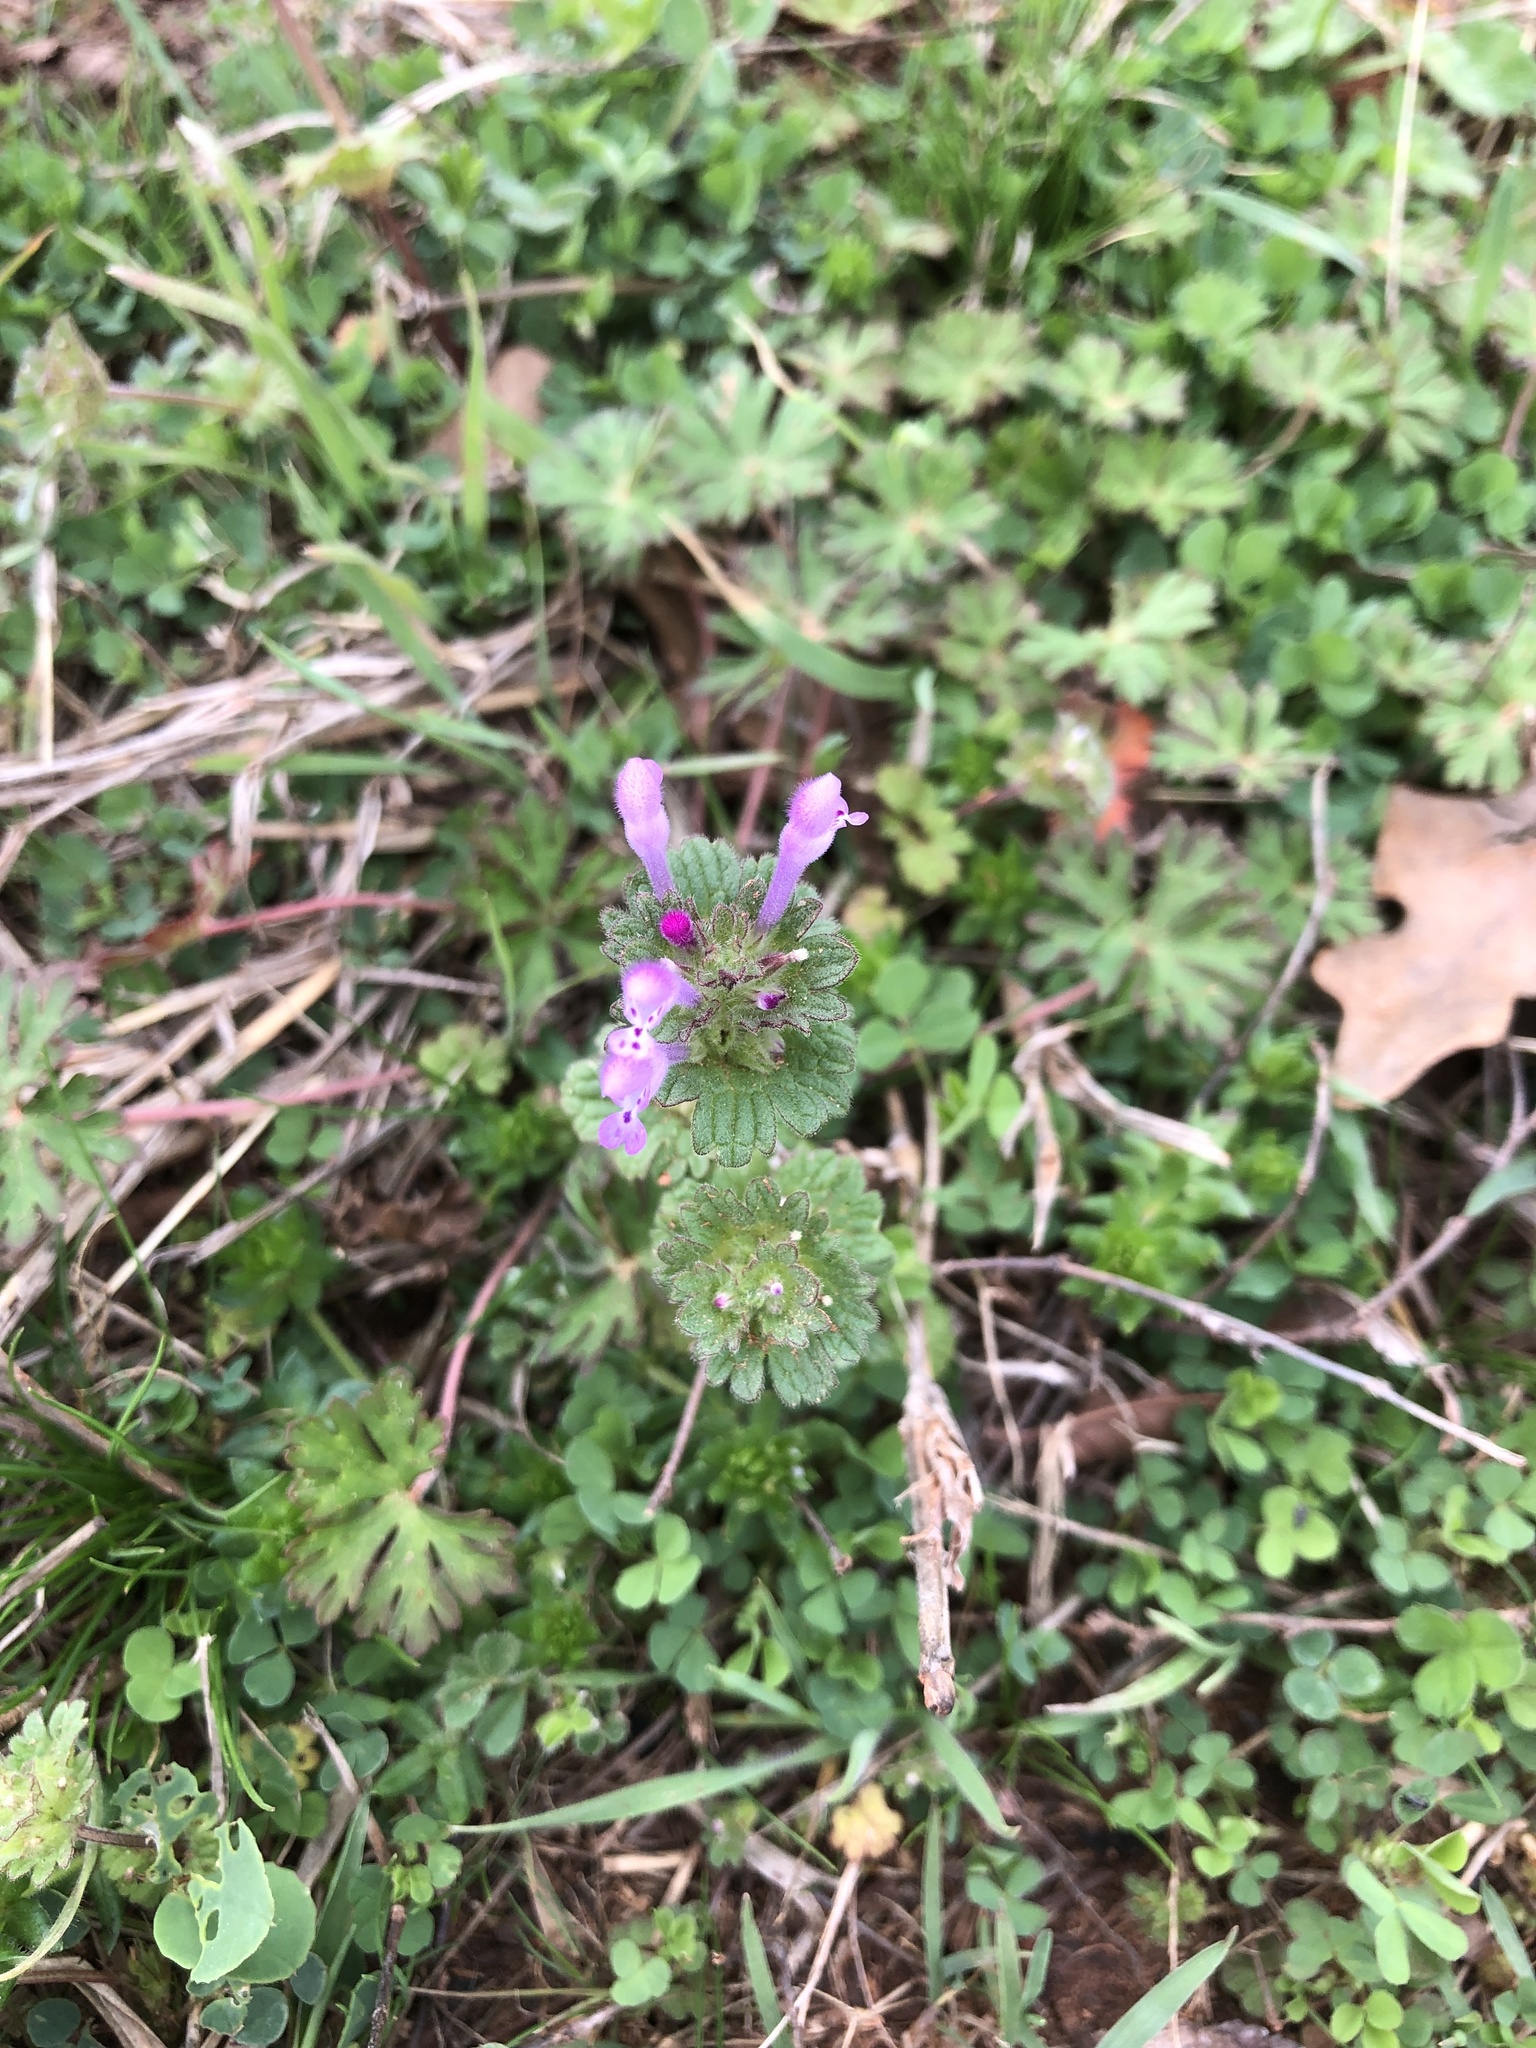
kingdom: Plantae
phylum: Tracheophyta
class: Magnoliopsida
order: Lamiales
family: Lamiaceae
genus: Lamium
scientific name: Lamium amplexicaule
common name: Henbit dead-nettle
